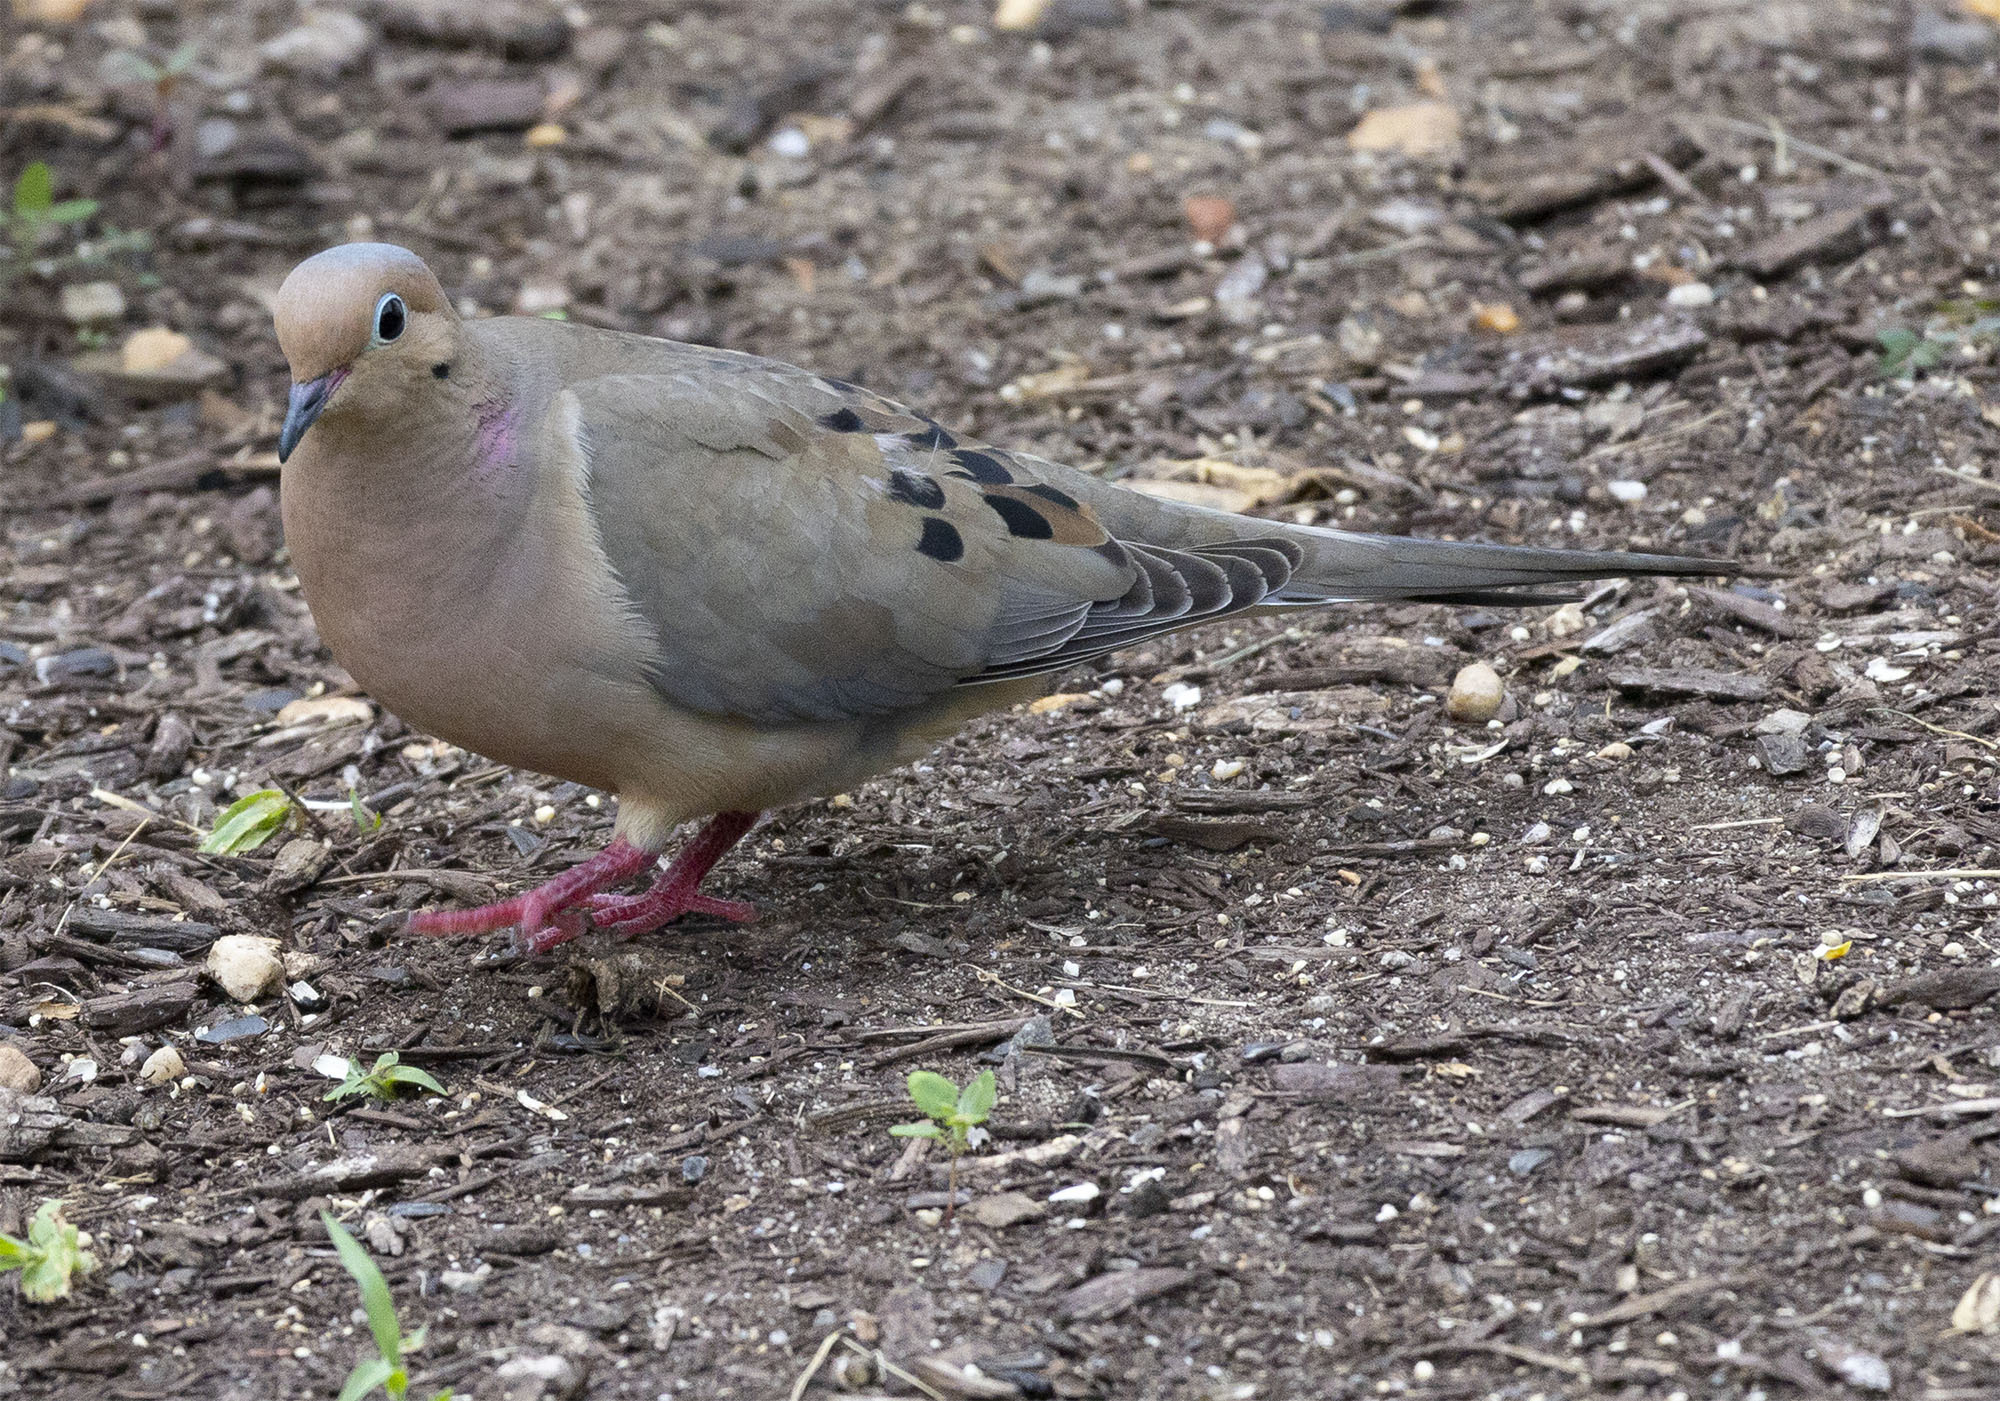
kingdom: Animalia
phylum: Chordata
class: Aves
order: Columbiformes
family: Columbidae
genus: Zenaida
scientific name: Zenaida macroura
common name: Mourning dove
